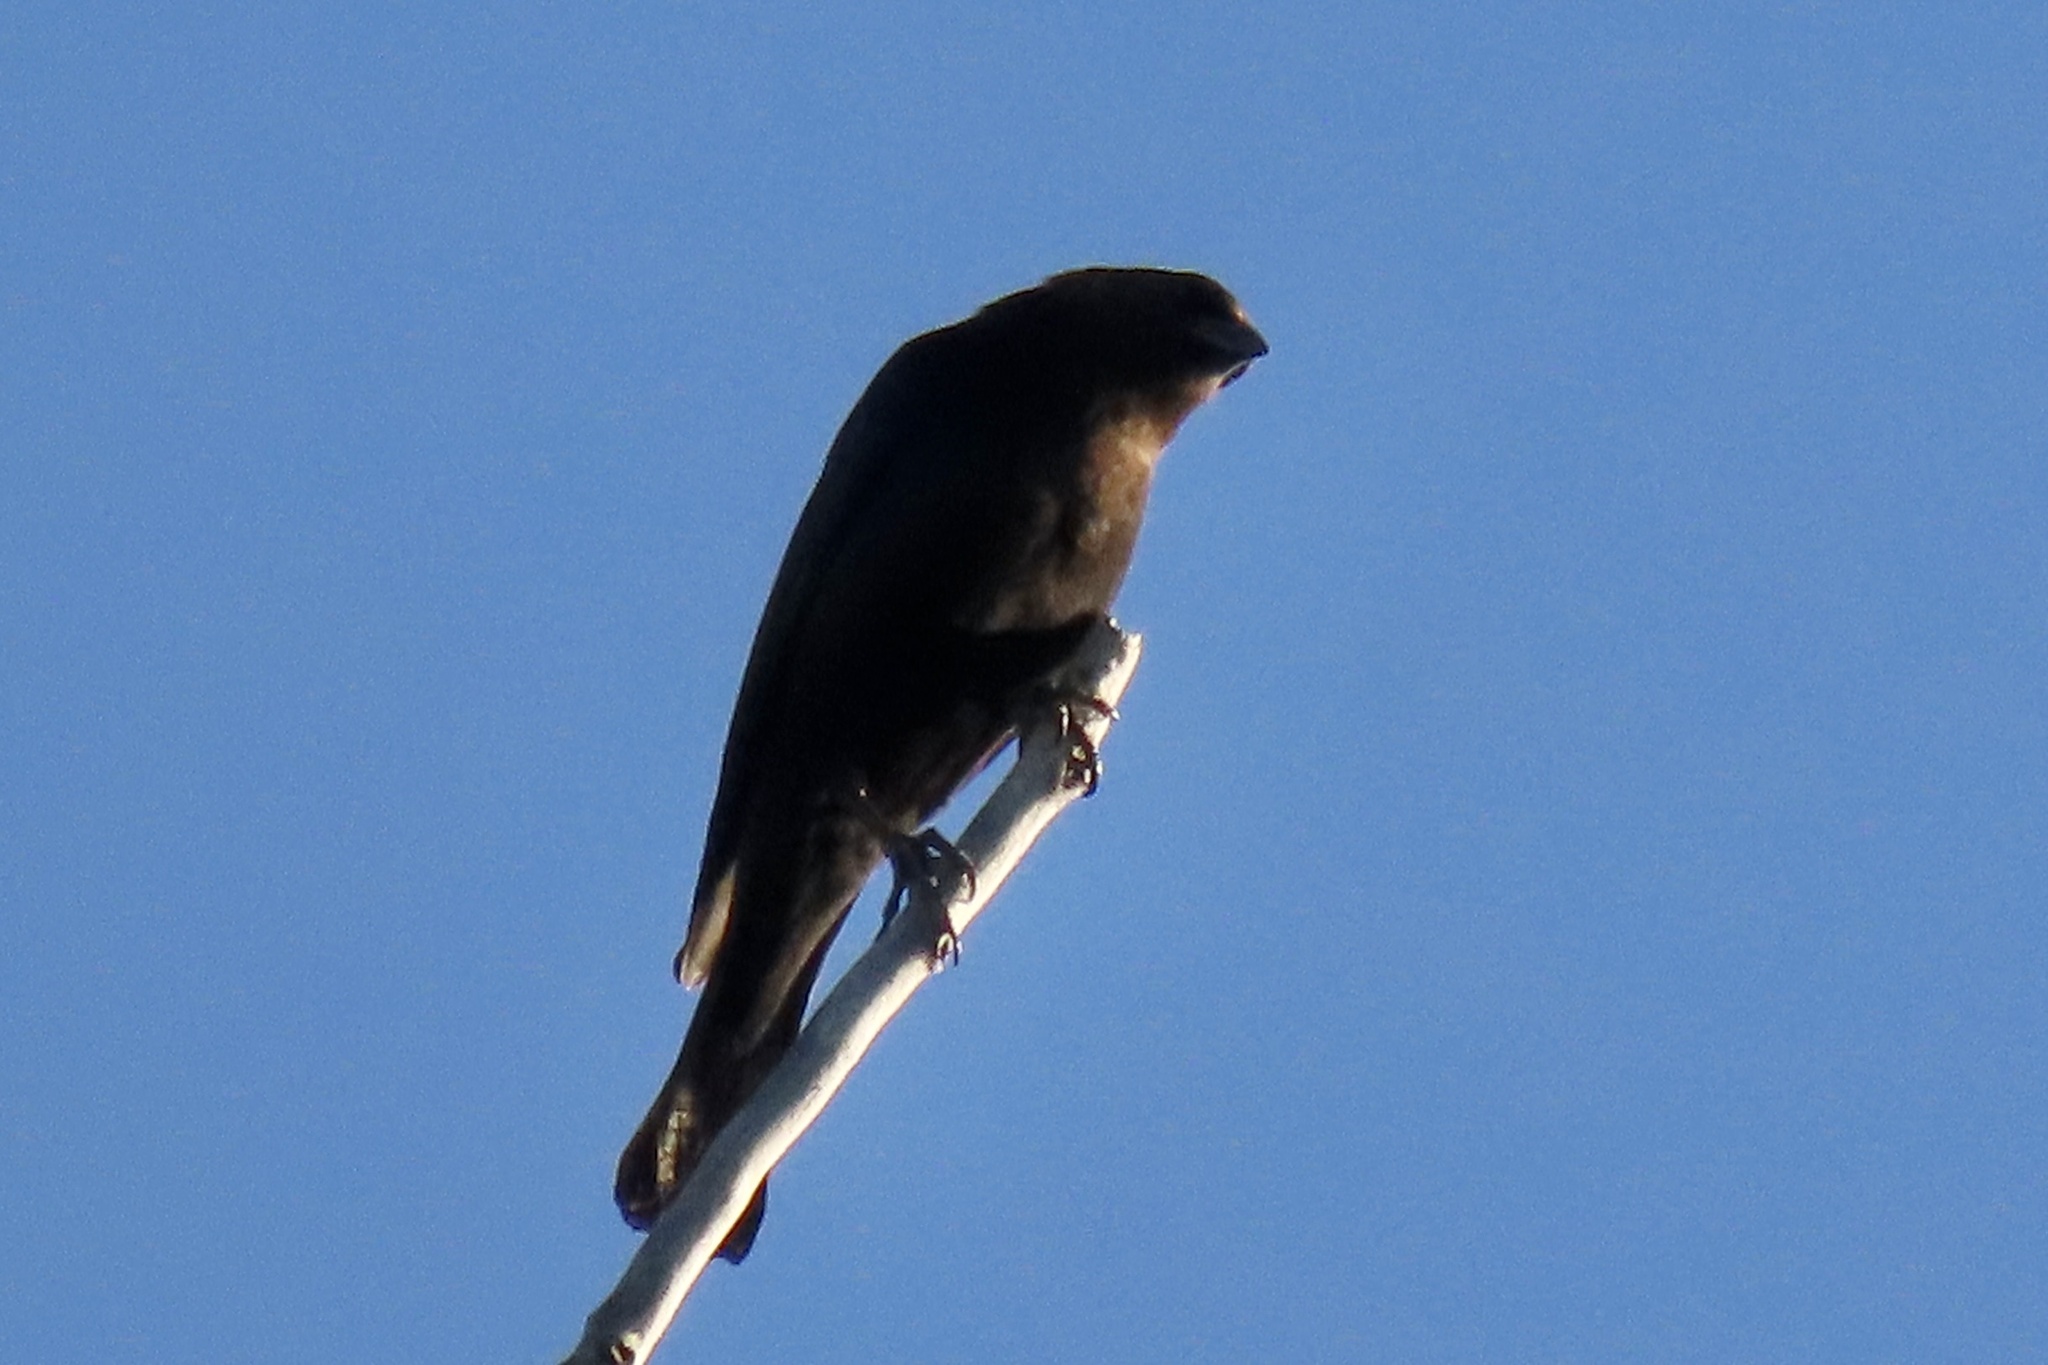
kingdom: Animalia
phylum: Chordata
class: Aves
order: Passeriformes
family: Icteridae
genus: Molothrus
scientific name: Molothrus ater
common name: Brown-headed cowbird
